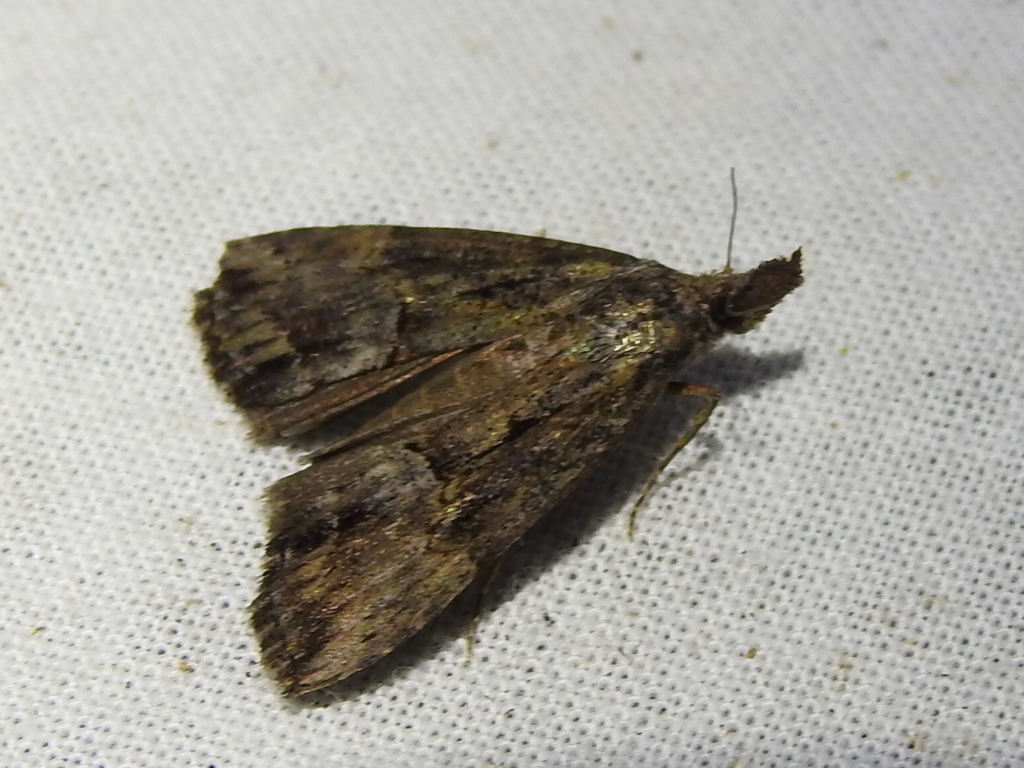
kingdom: Animalia
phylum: Arthropoda
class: Insecta
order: Lepidoptera
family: Erebidae
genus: Hypena
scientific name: Hypena scabra
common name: Green cloverworm
